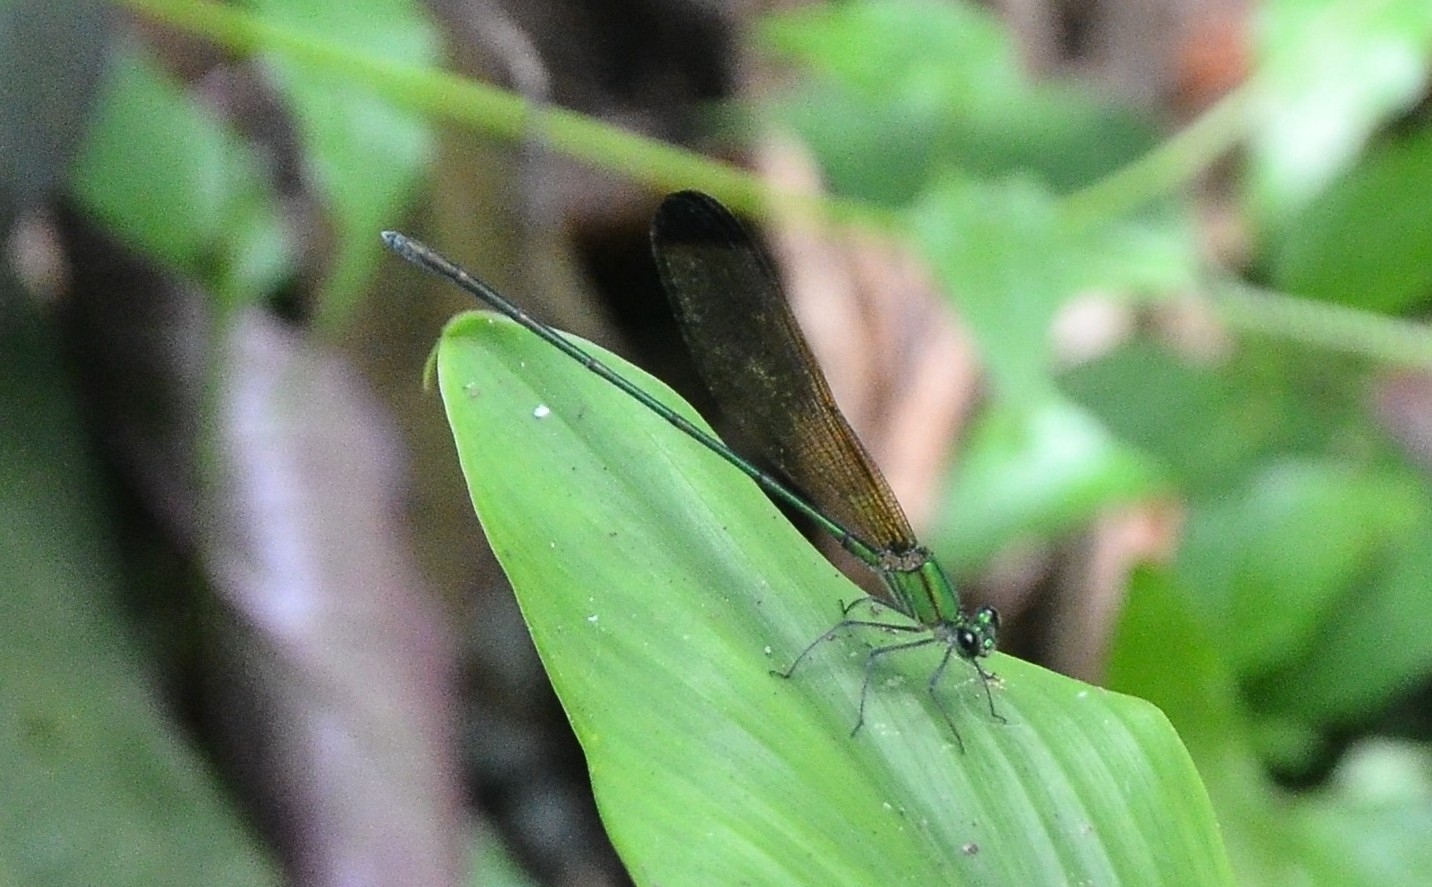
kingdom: Animalia
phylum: Arthropoda
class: Insecta
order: Odonata
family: Calopterygidae
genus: Vestalis
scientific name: Vestalis apicalis
